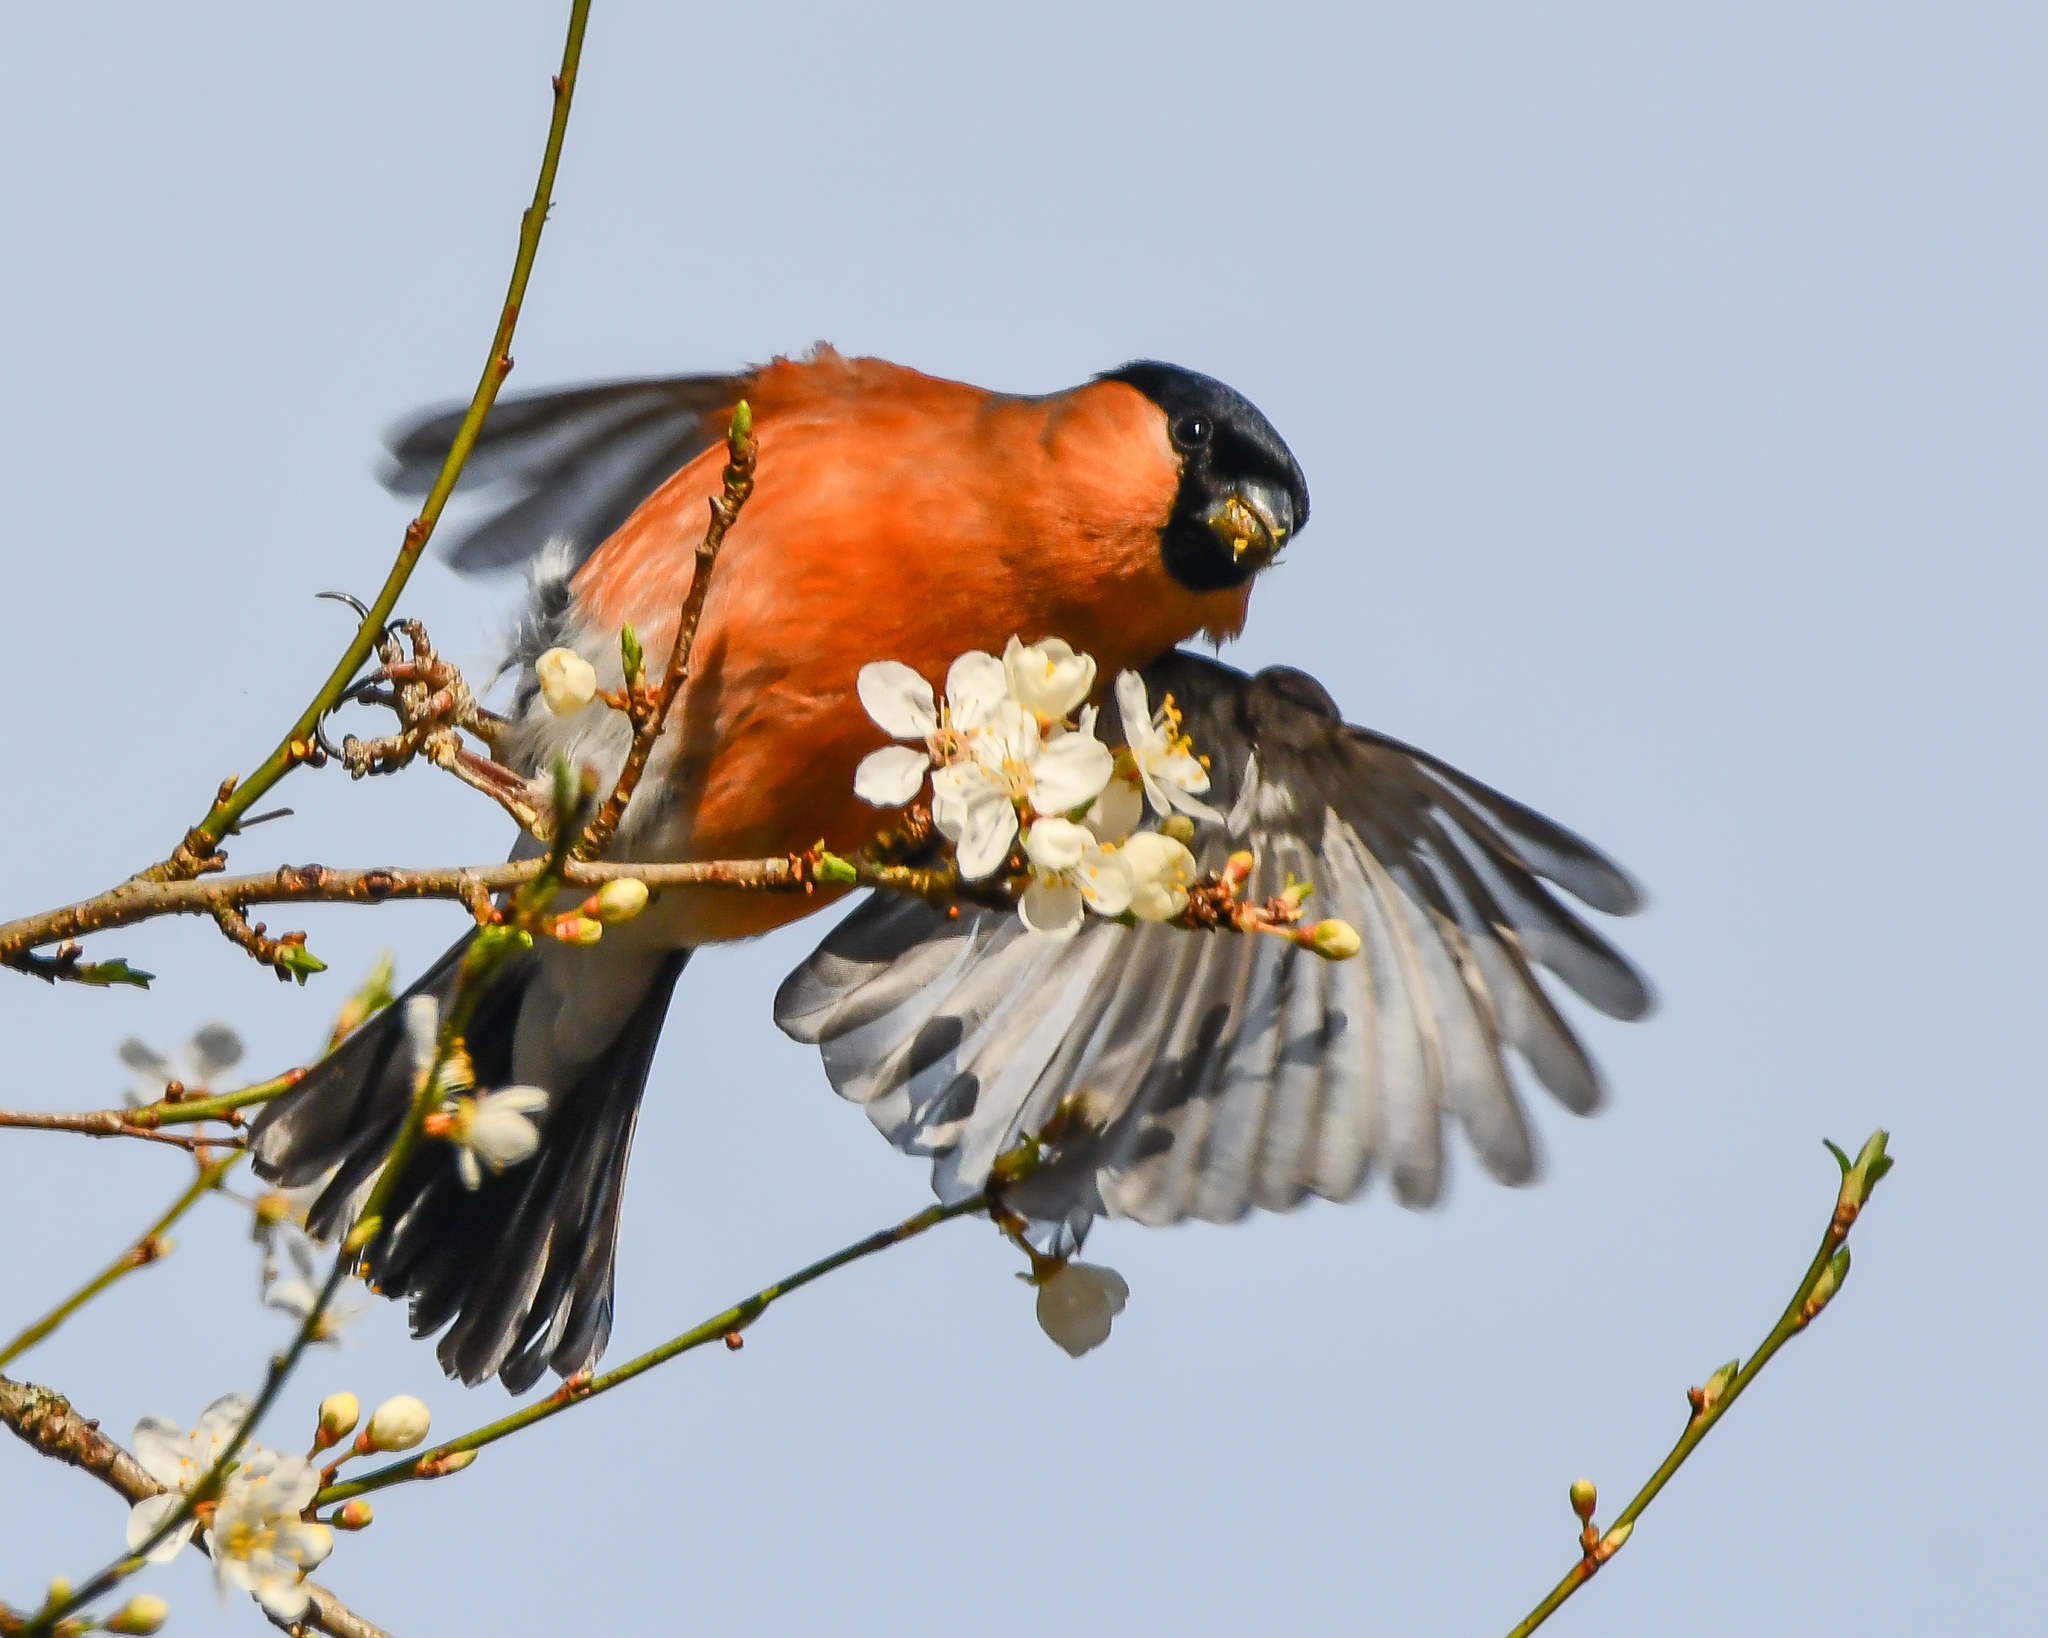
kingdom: Animalia
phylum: Chordata
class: Aves
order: Passeriformes
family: Fringillidae
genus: Pyrrhula
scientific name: Pyrrhula pyrrhula
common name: Eurasian bullfinch
